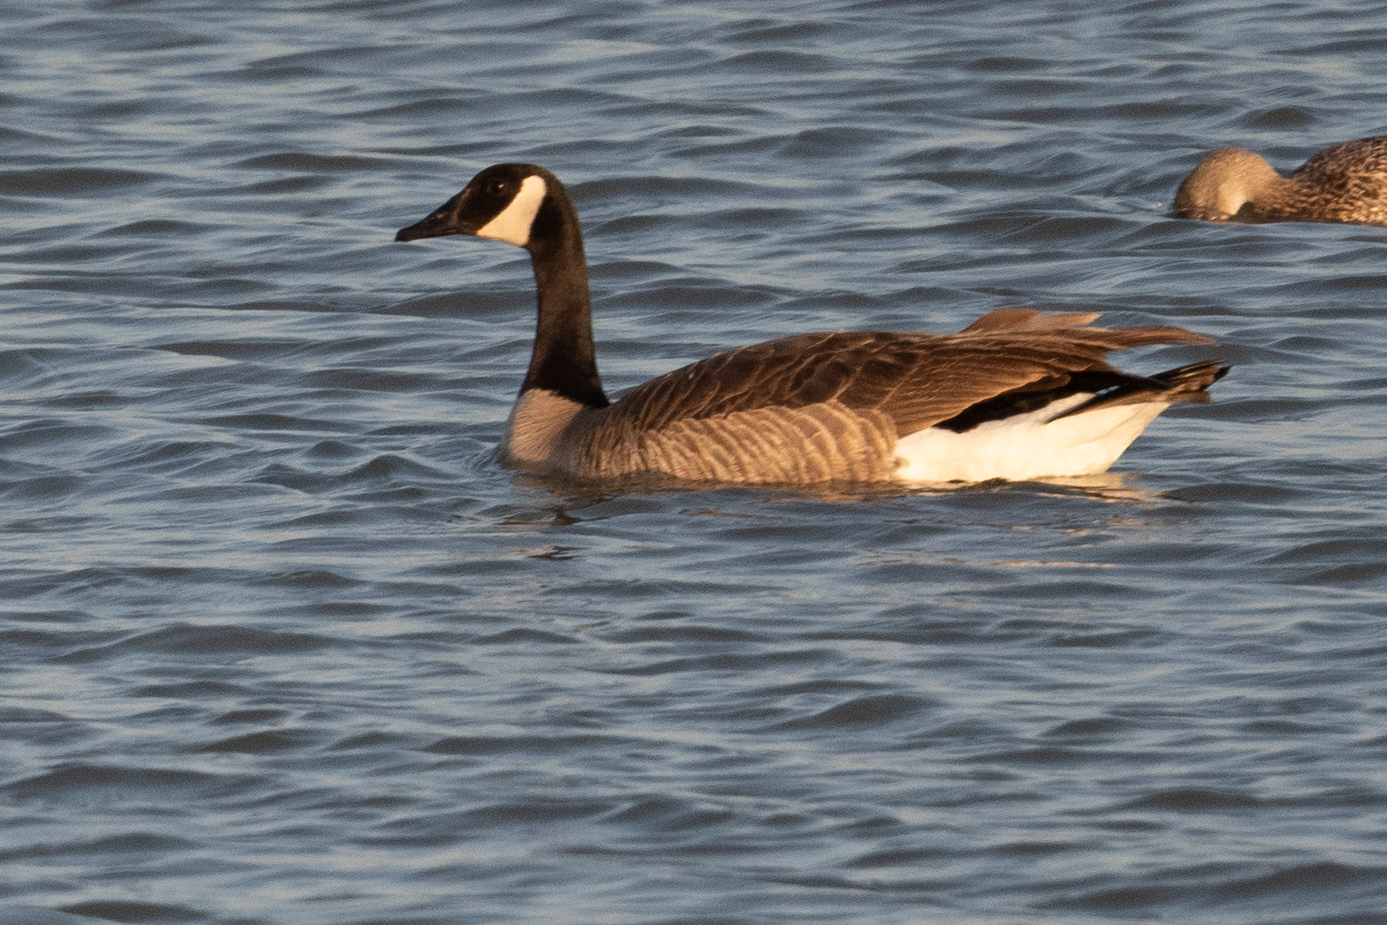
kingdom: Animalia
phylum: Chordata
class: Aves
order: Anseriformes
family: Anatidae
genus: Branta
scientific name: Branta canadensis
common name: Canada goose
